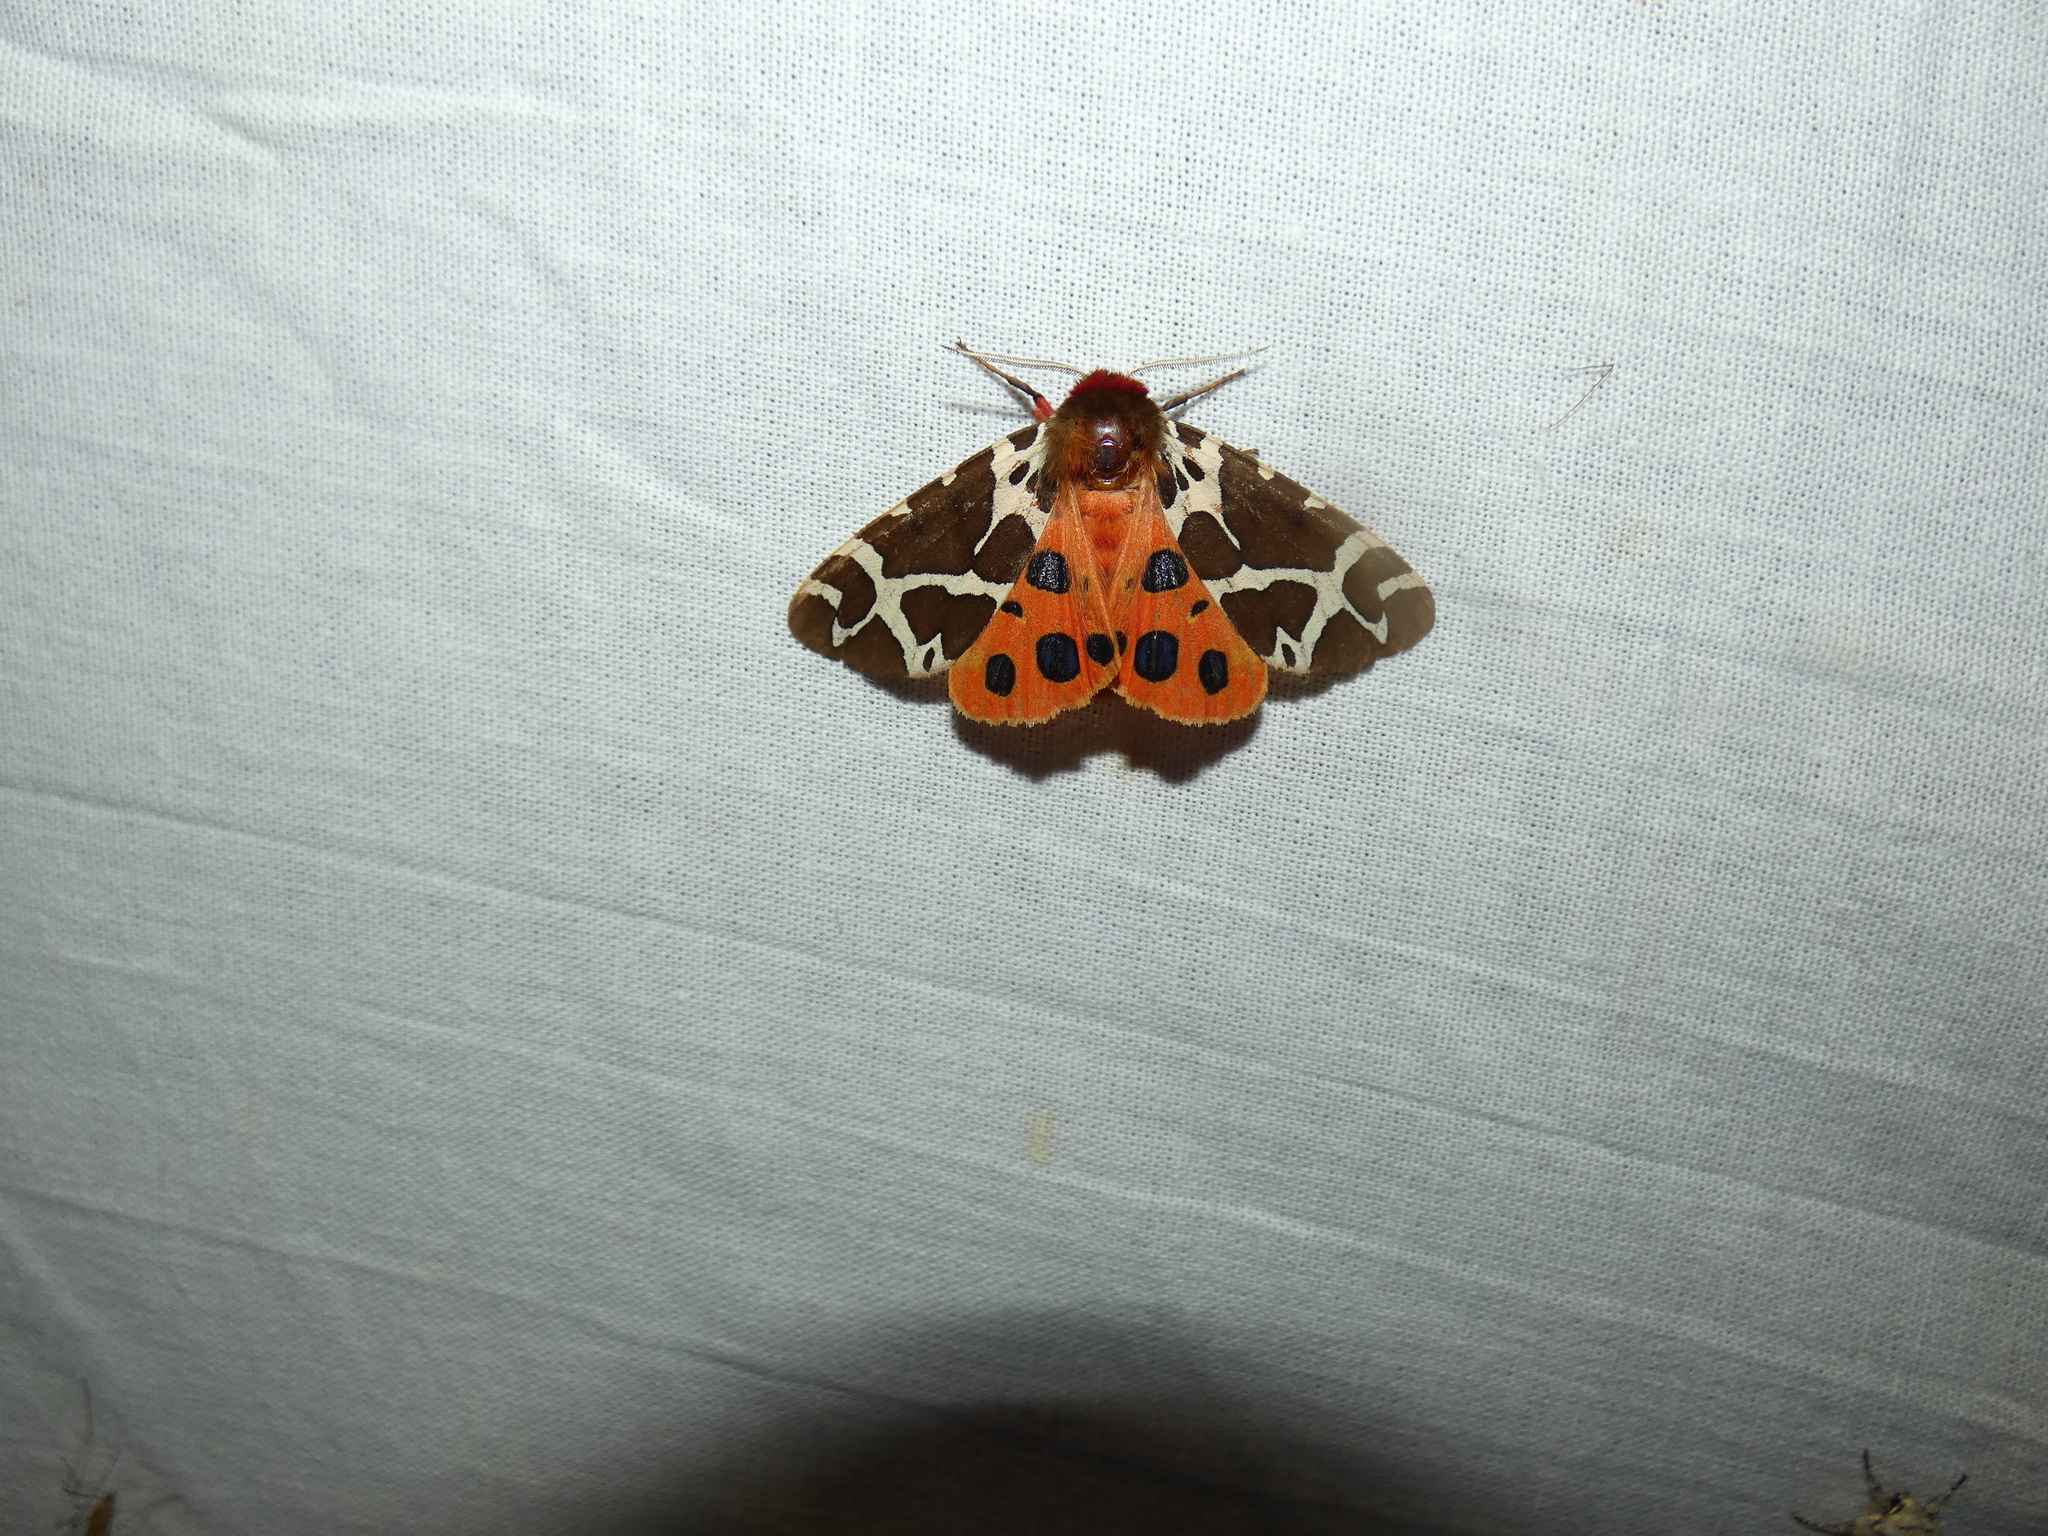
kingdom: Animalia
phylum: Arthropoda
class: Insecta
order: Lepidoptera
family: Erebidae
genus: Arctia
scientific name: Arctia caja
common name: Garden tiger
